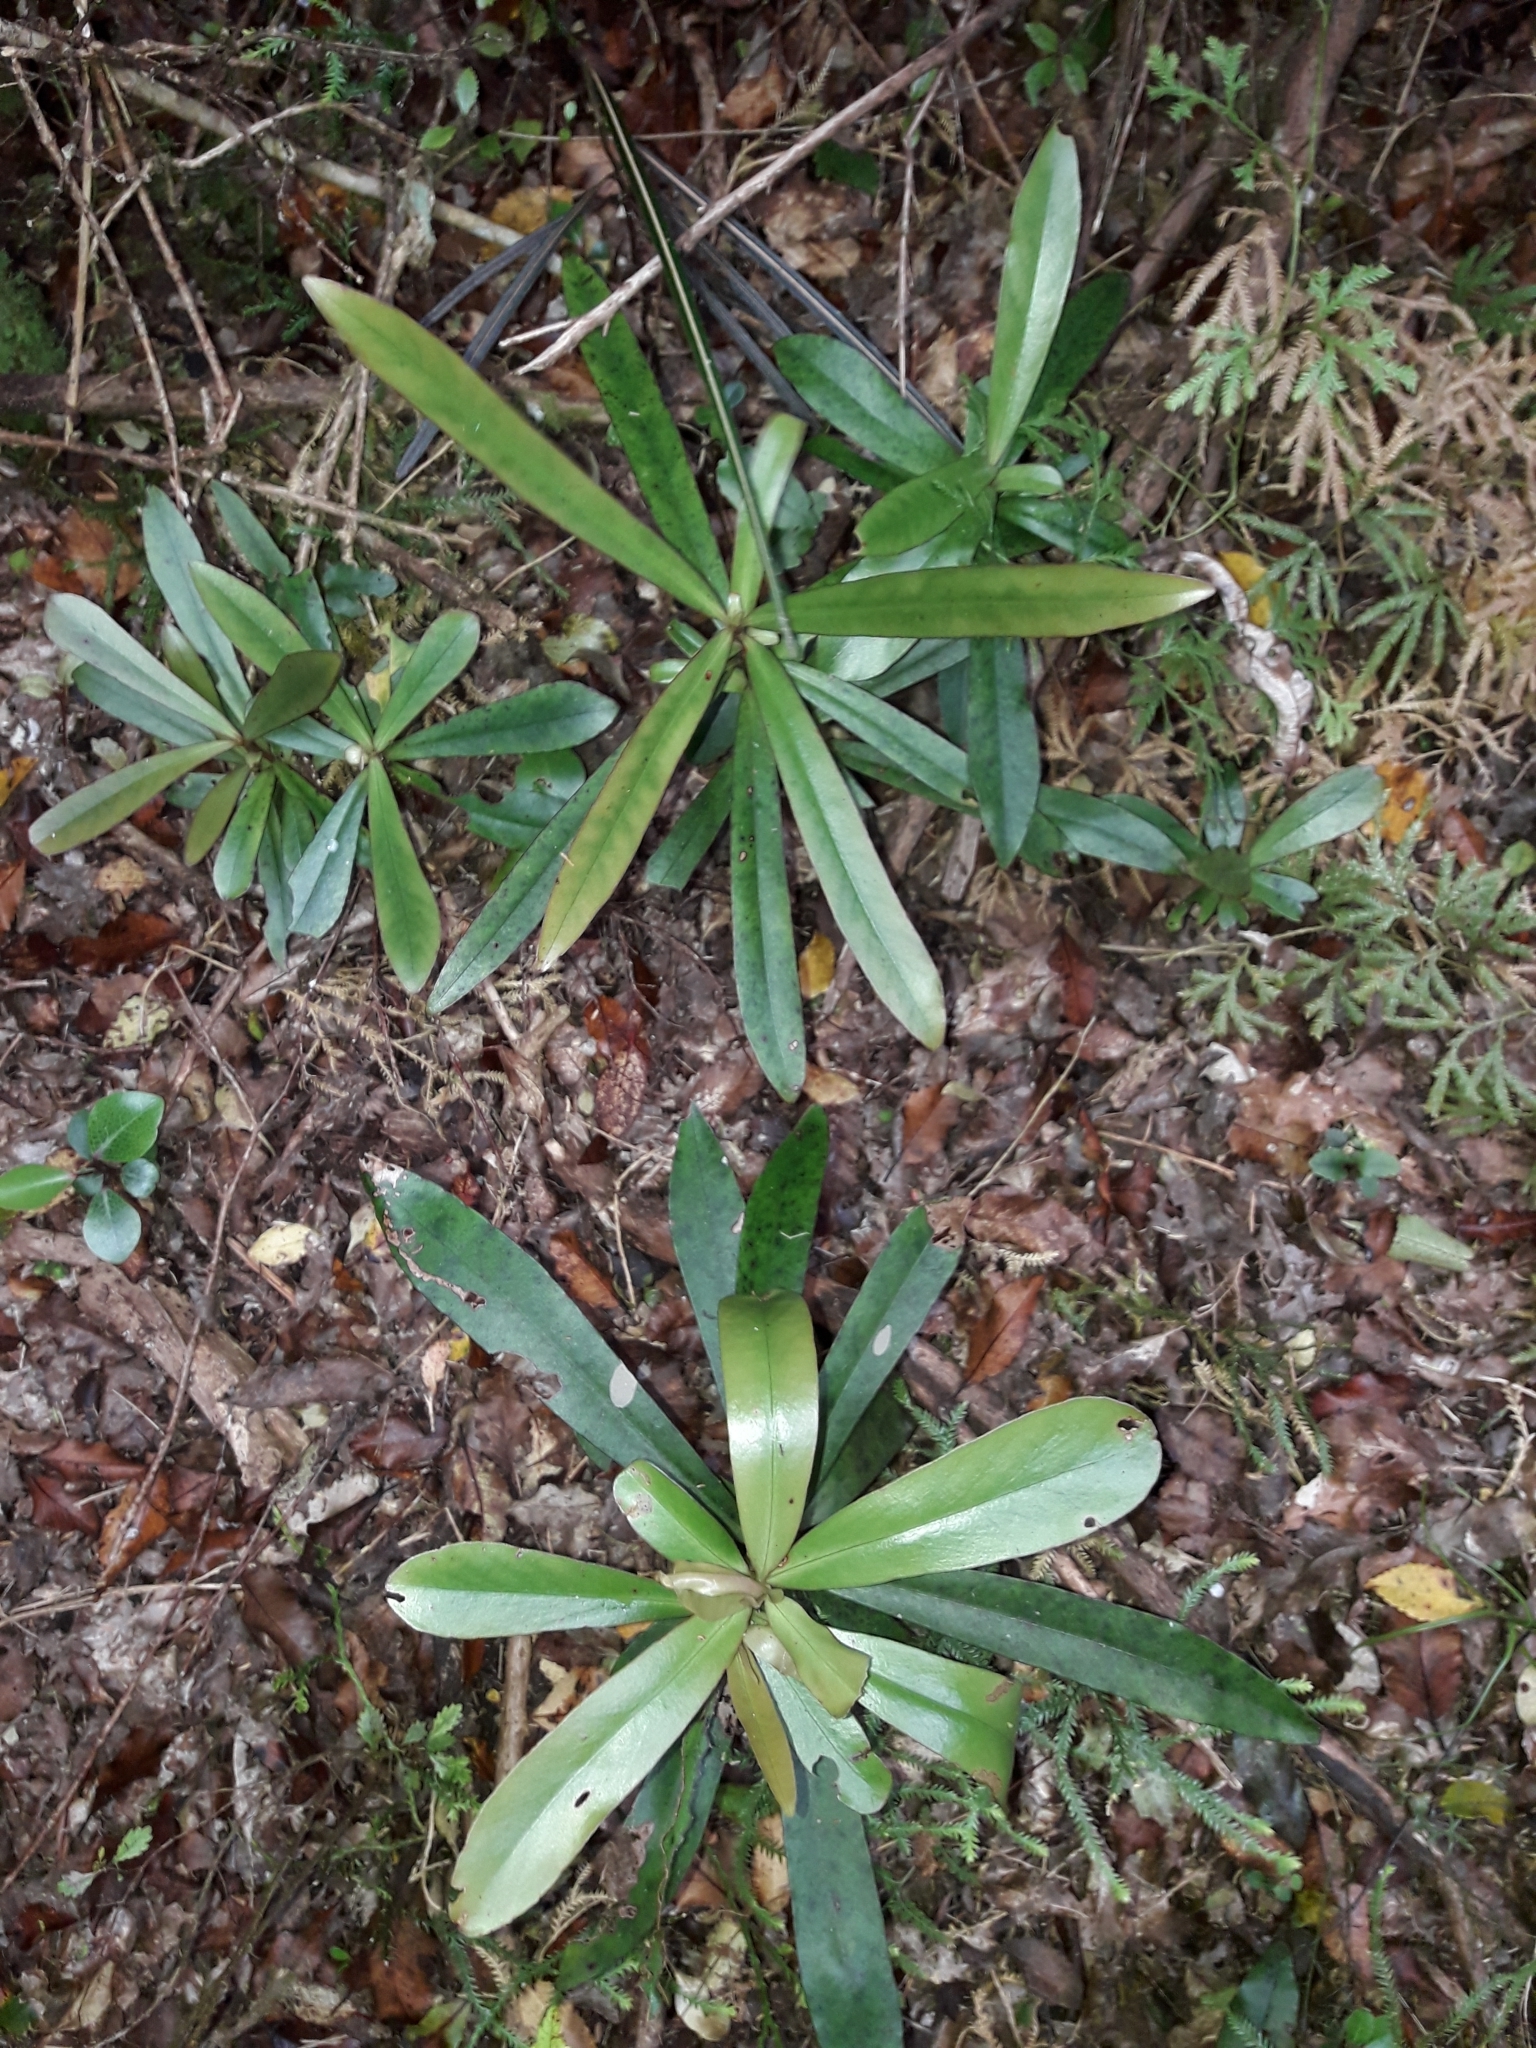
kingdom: Plantae
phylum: Tracheophyta
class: Magnoliopsida
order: Ericales
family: Primulaceae
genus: Myrsine
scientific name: Myrsine salicina
